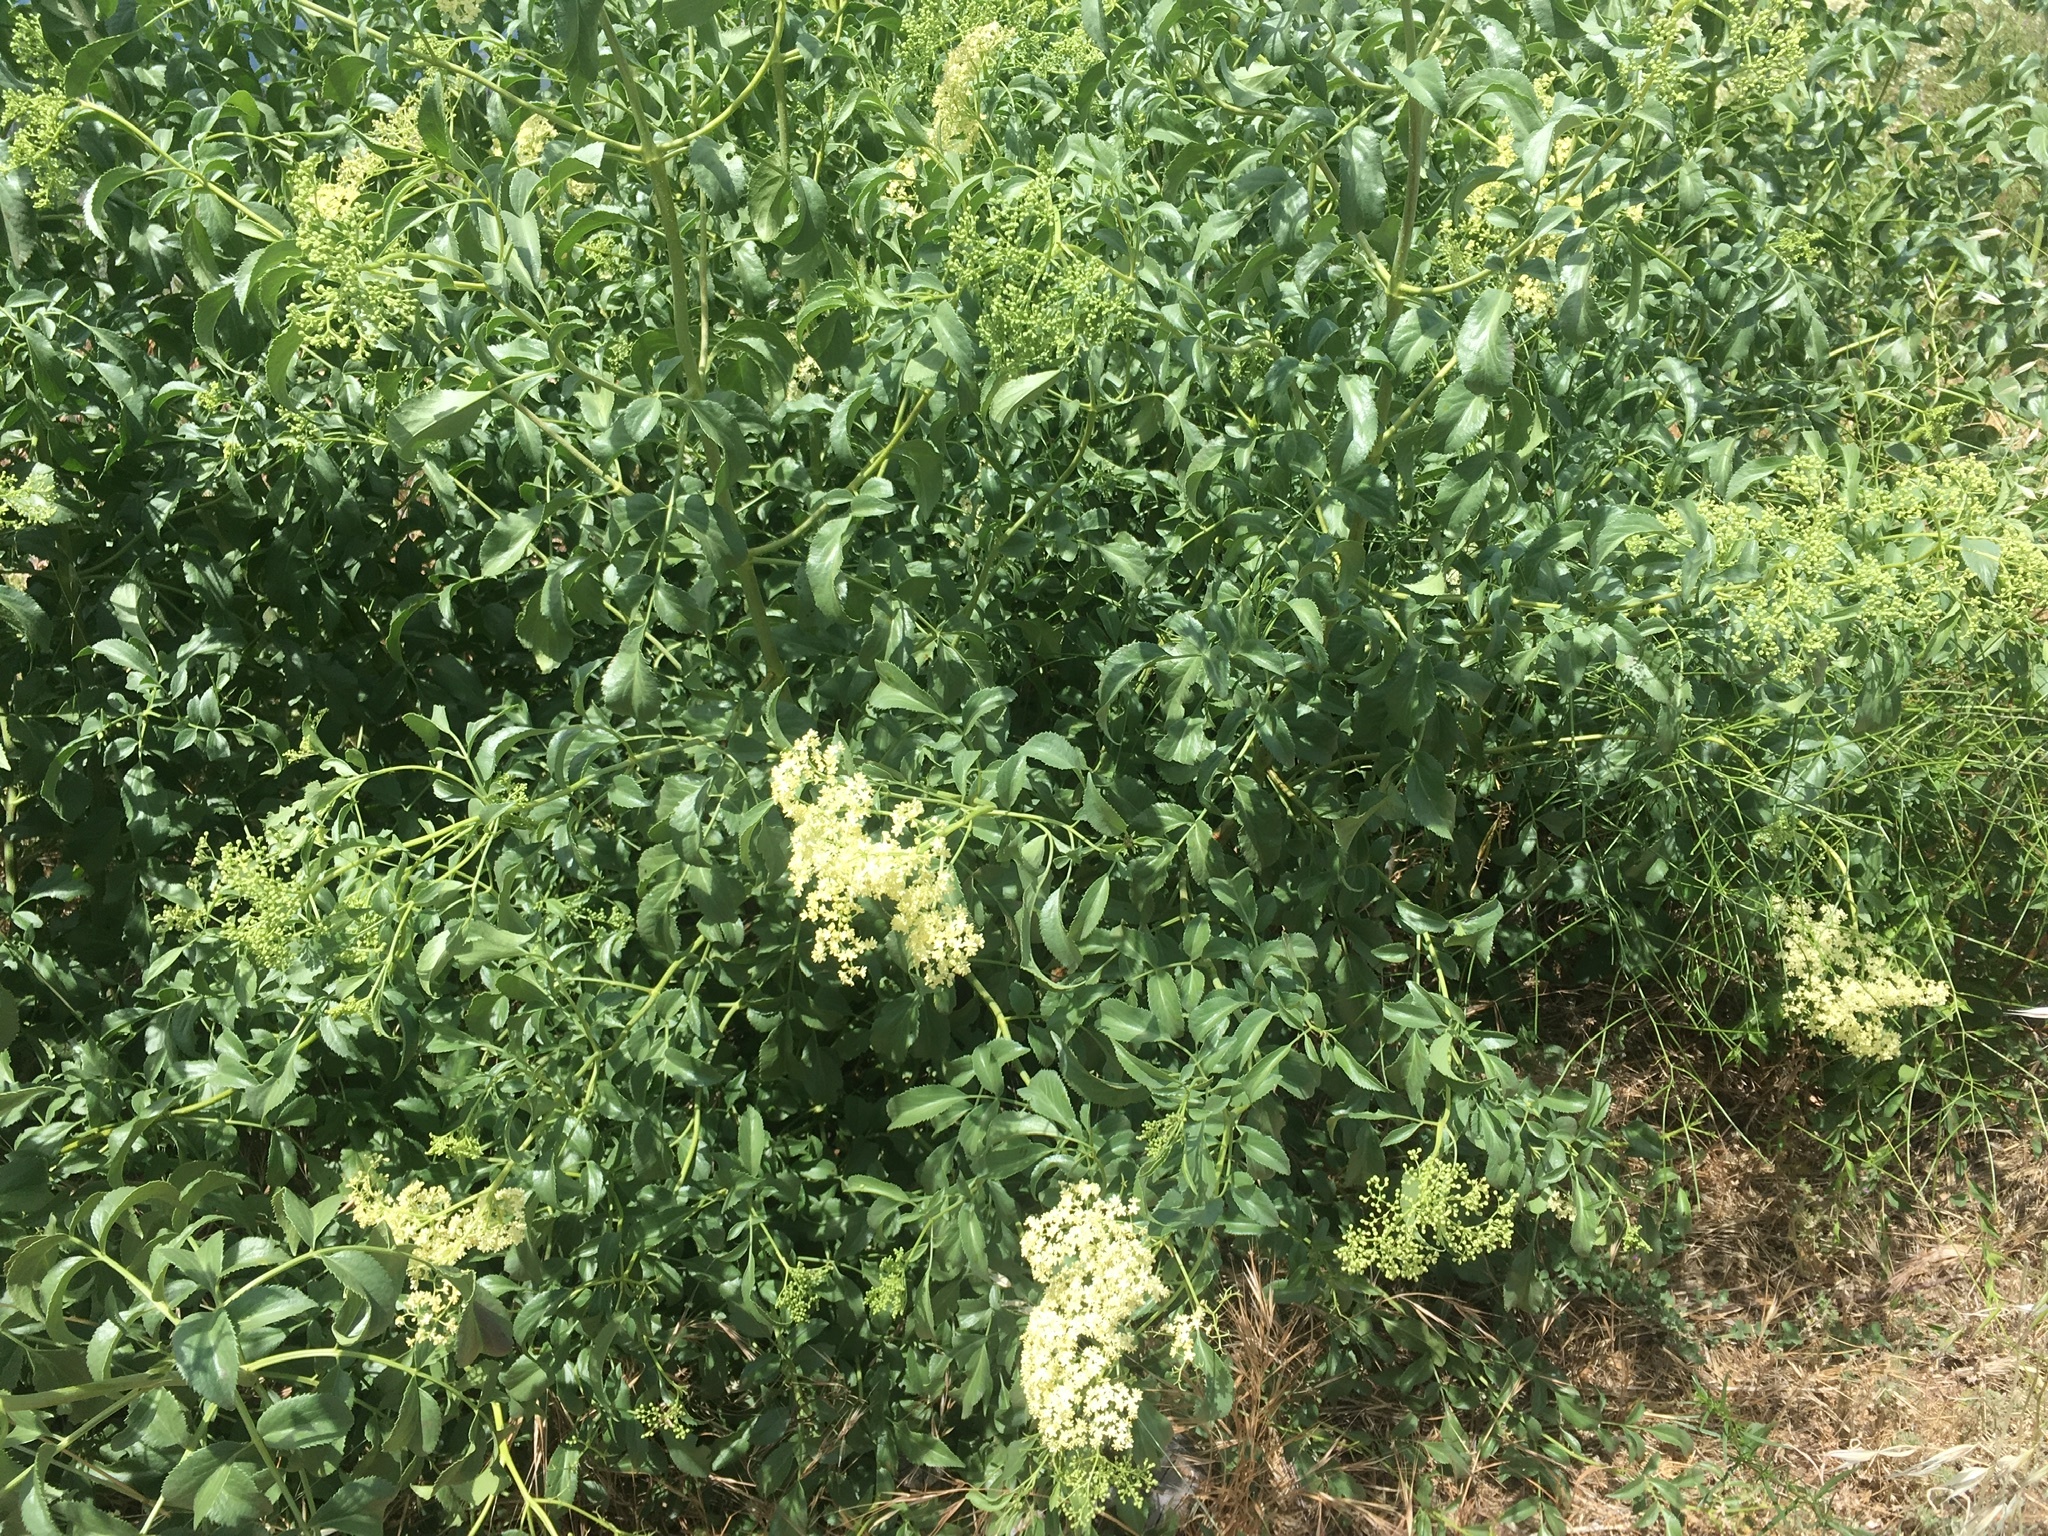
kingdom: Plantae
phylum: Tracheophyta
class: Magnoliopsida
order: Dipsacales
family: Viburnaceae
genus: Sambucus
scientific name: Sambucus cerulea
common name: Blue elder
